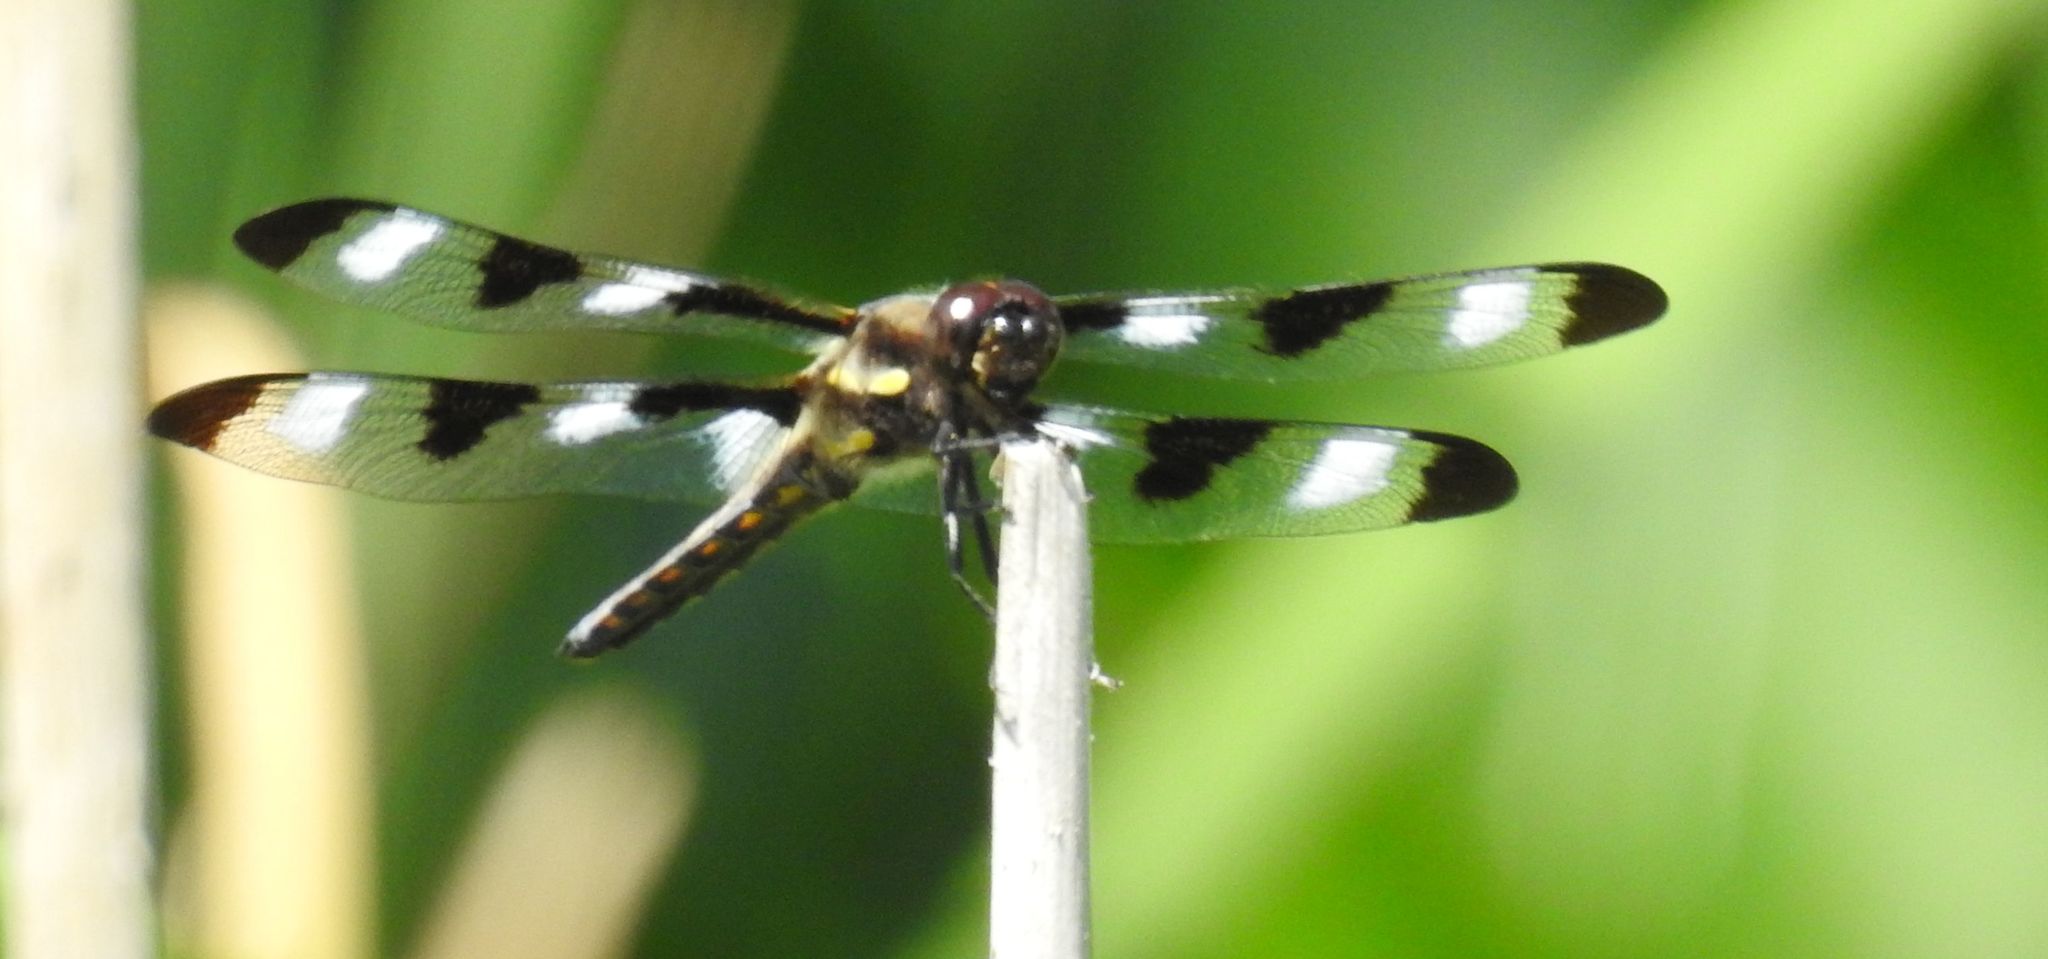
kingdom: Animalia
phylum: Arthropoda
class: Insecta
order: Odonata
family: Libellulidae
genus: Libellula
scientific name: Libellula pulchella
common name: Twelve-spotted skimmer
